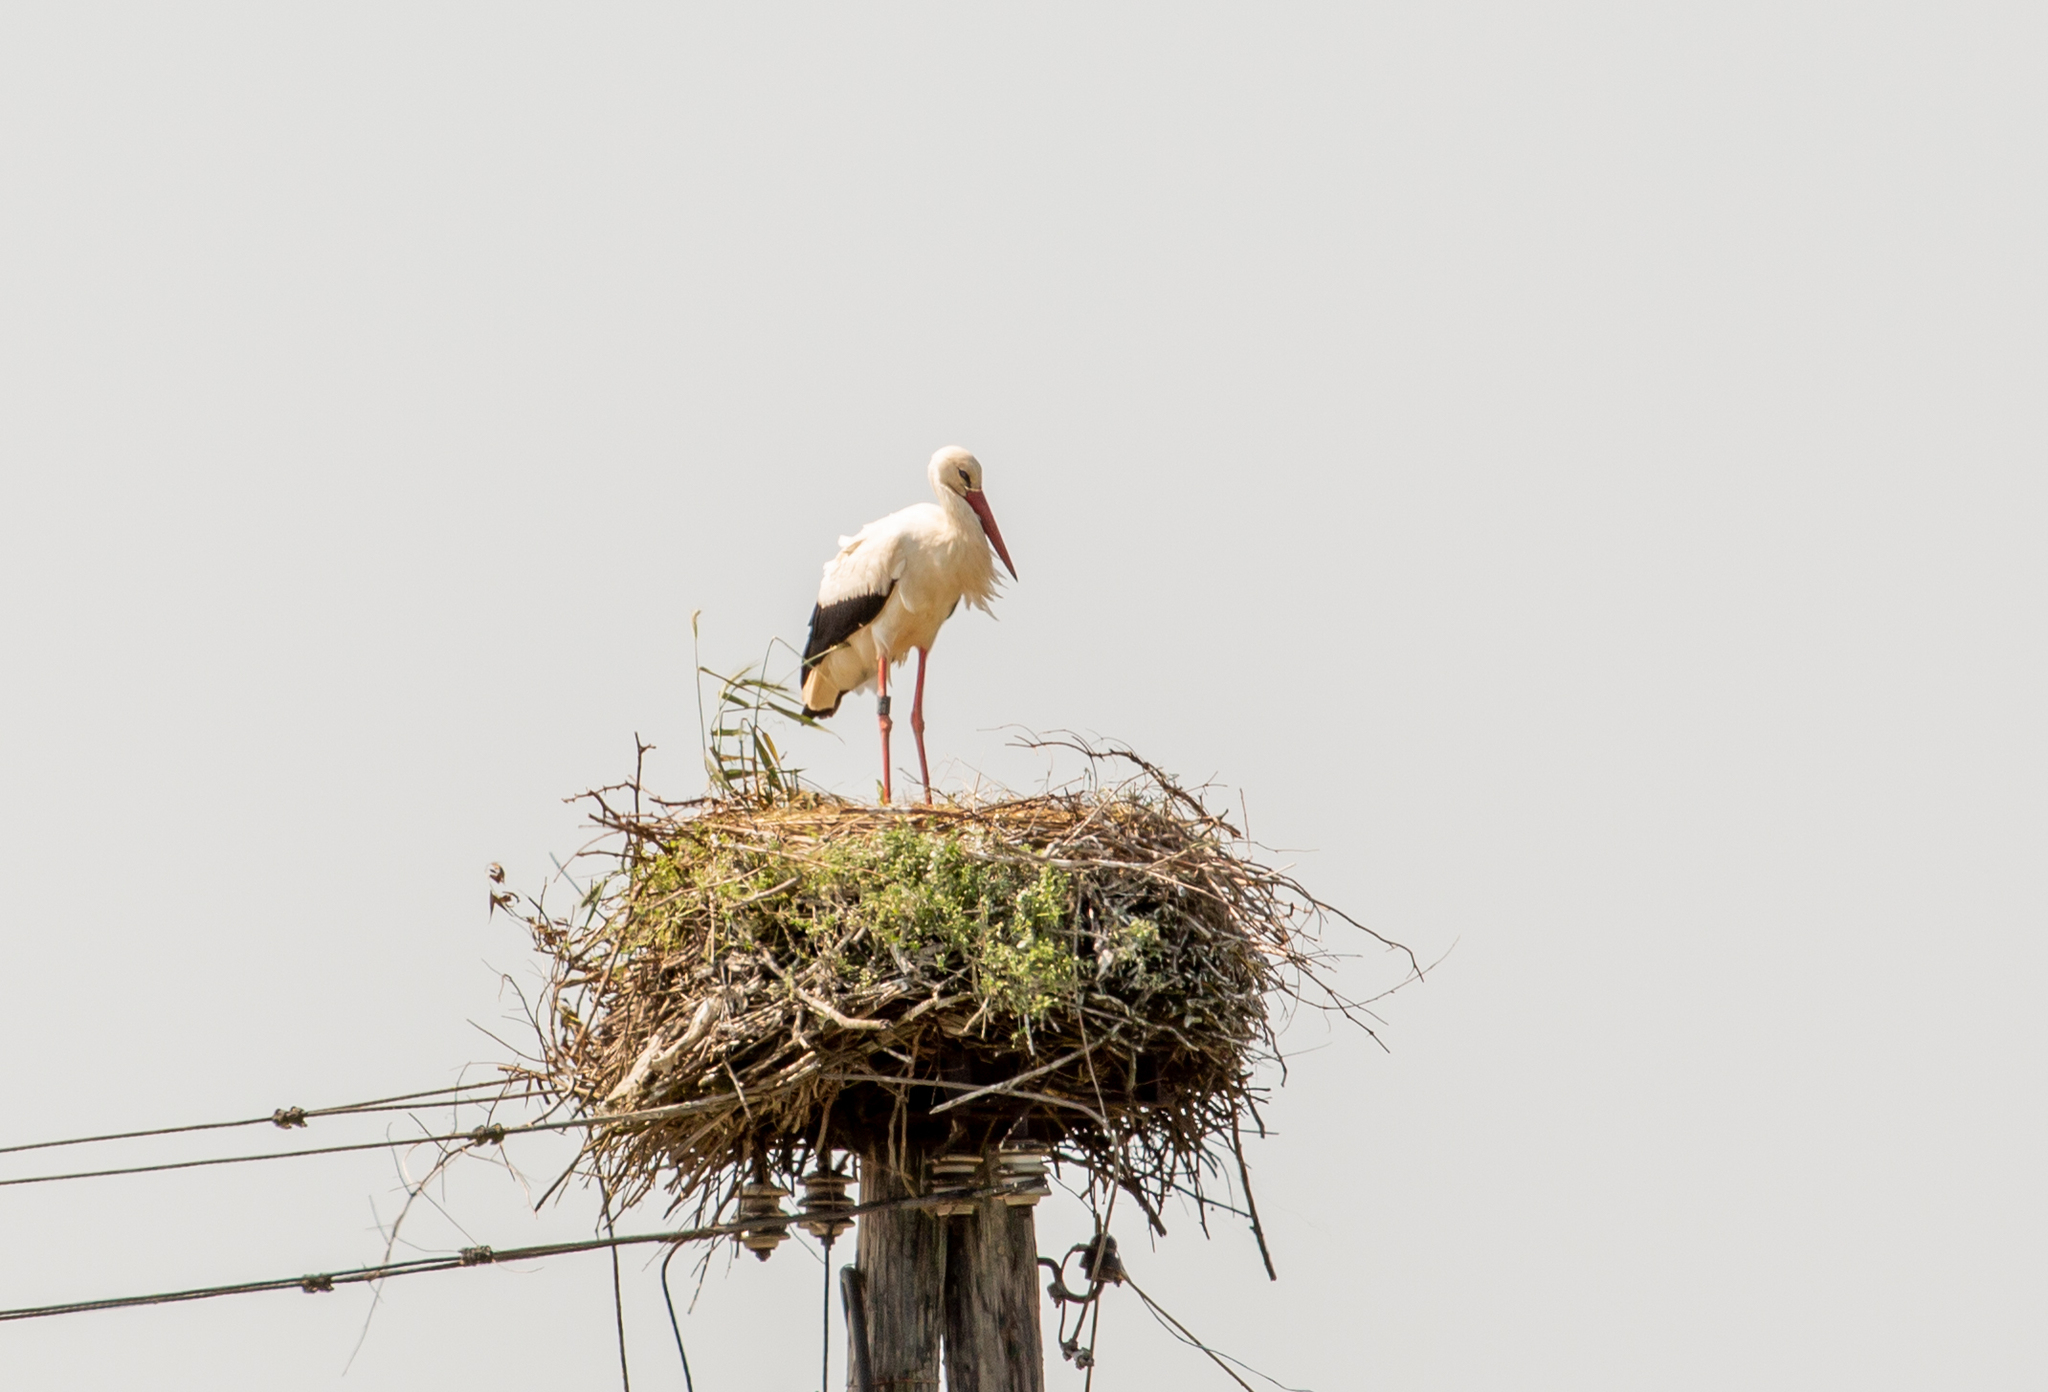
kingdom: Animalia
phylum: Chordata
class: Aves
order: Ciconiiformes
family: Ciconiidae
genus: Ciconia
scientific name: Ciconia ciconia
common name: White stork
